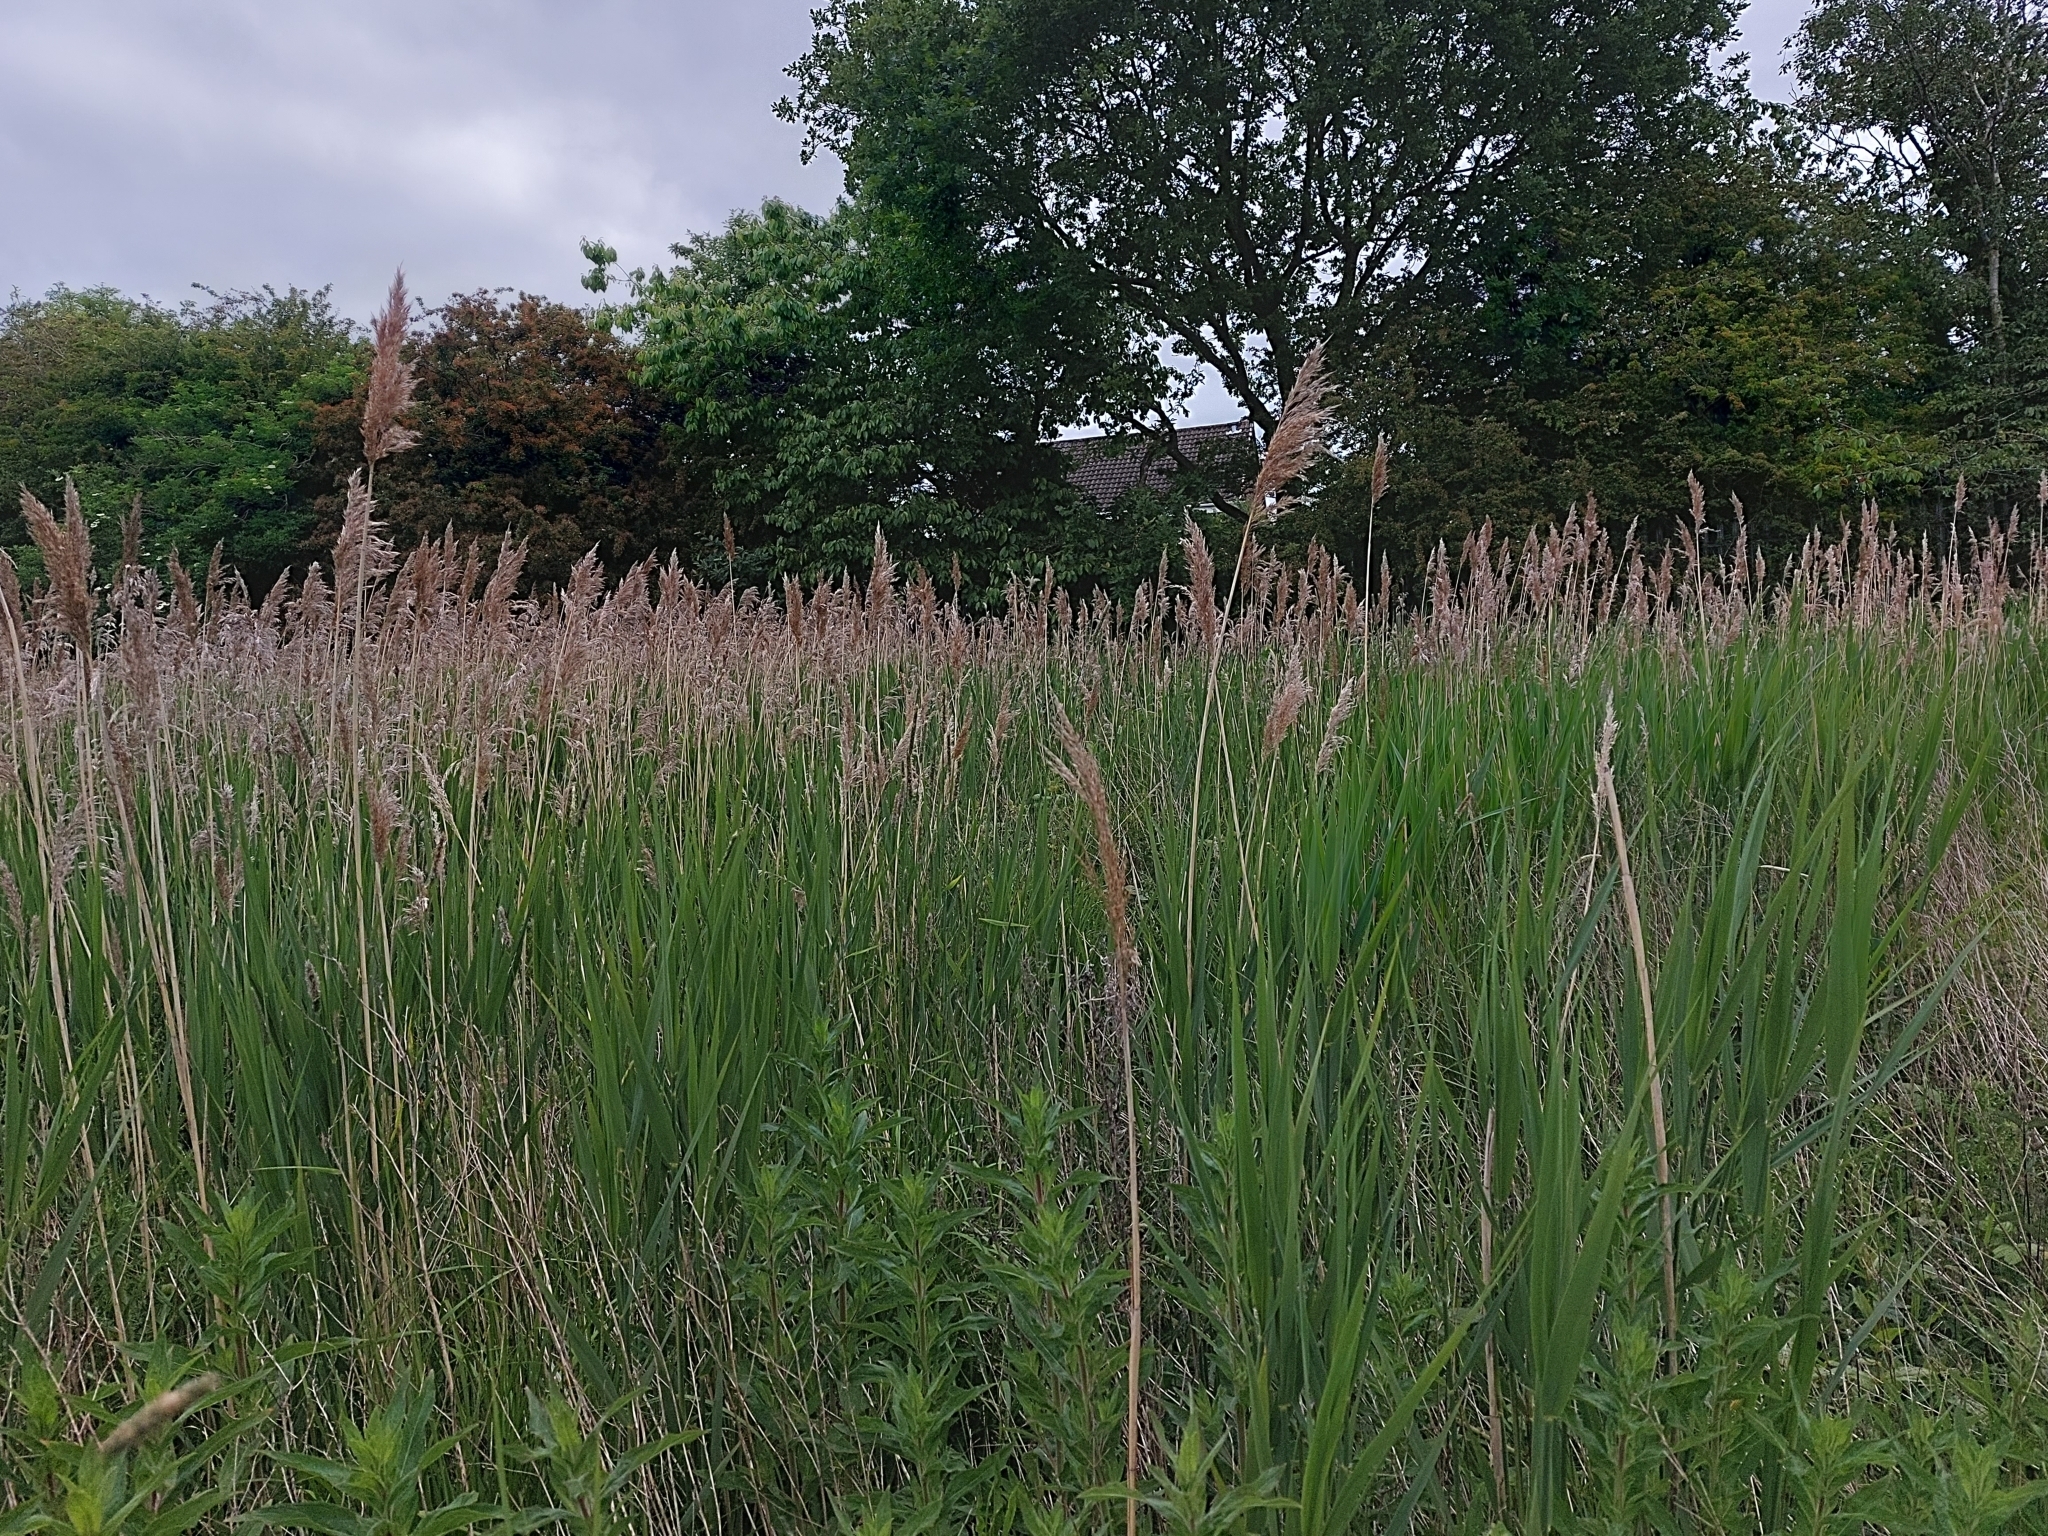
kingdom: Plantae
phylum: Tracheophyta
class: Liliopsida
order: Poales
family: Poaceae
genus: Phragmites
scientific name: Phragmites australis
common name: Common reed
